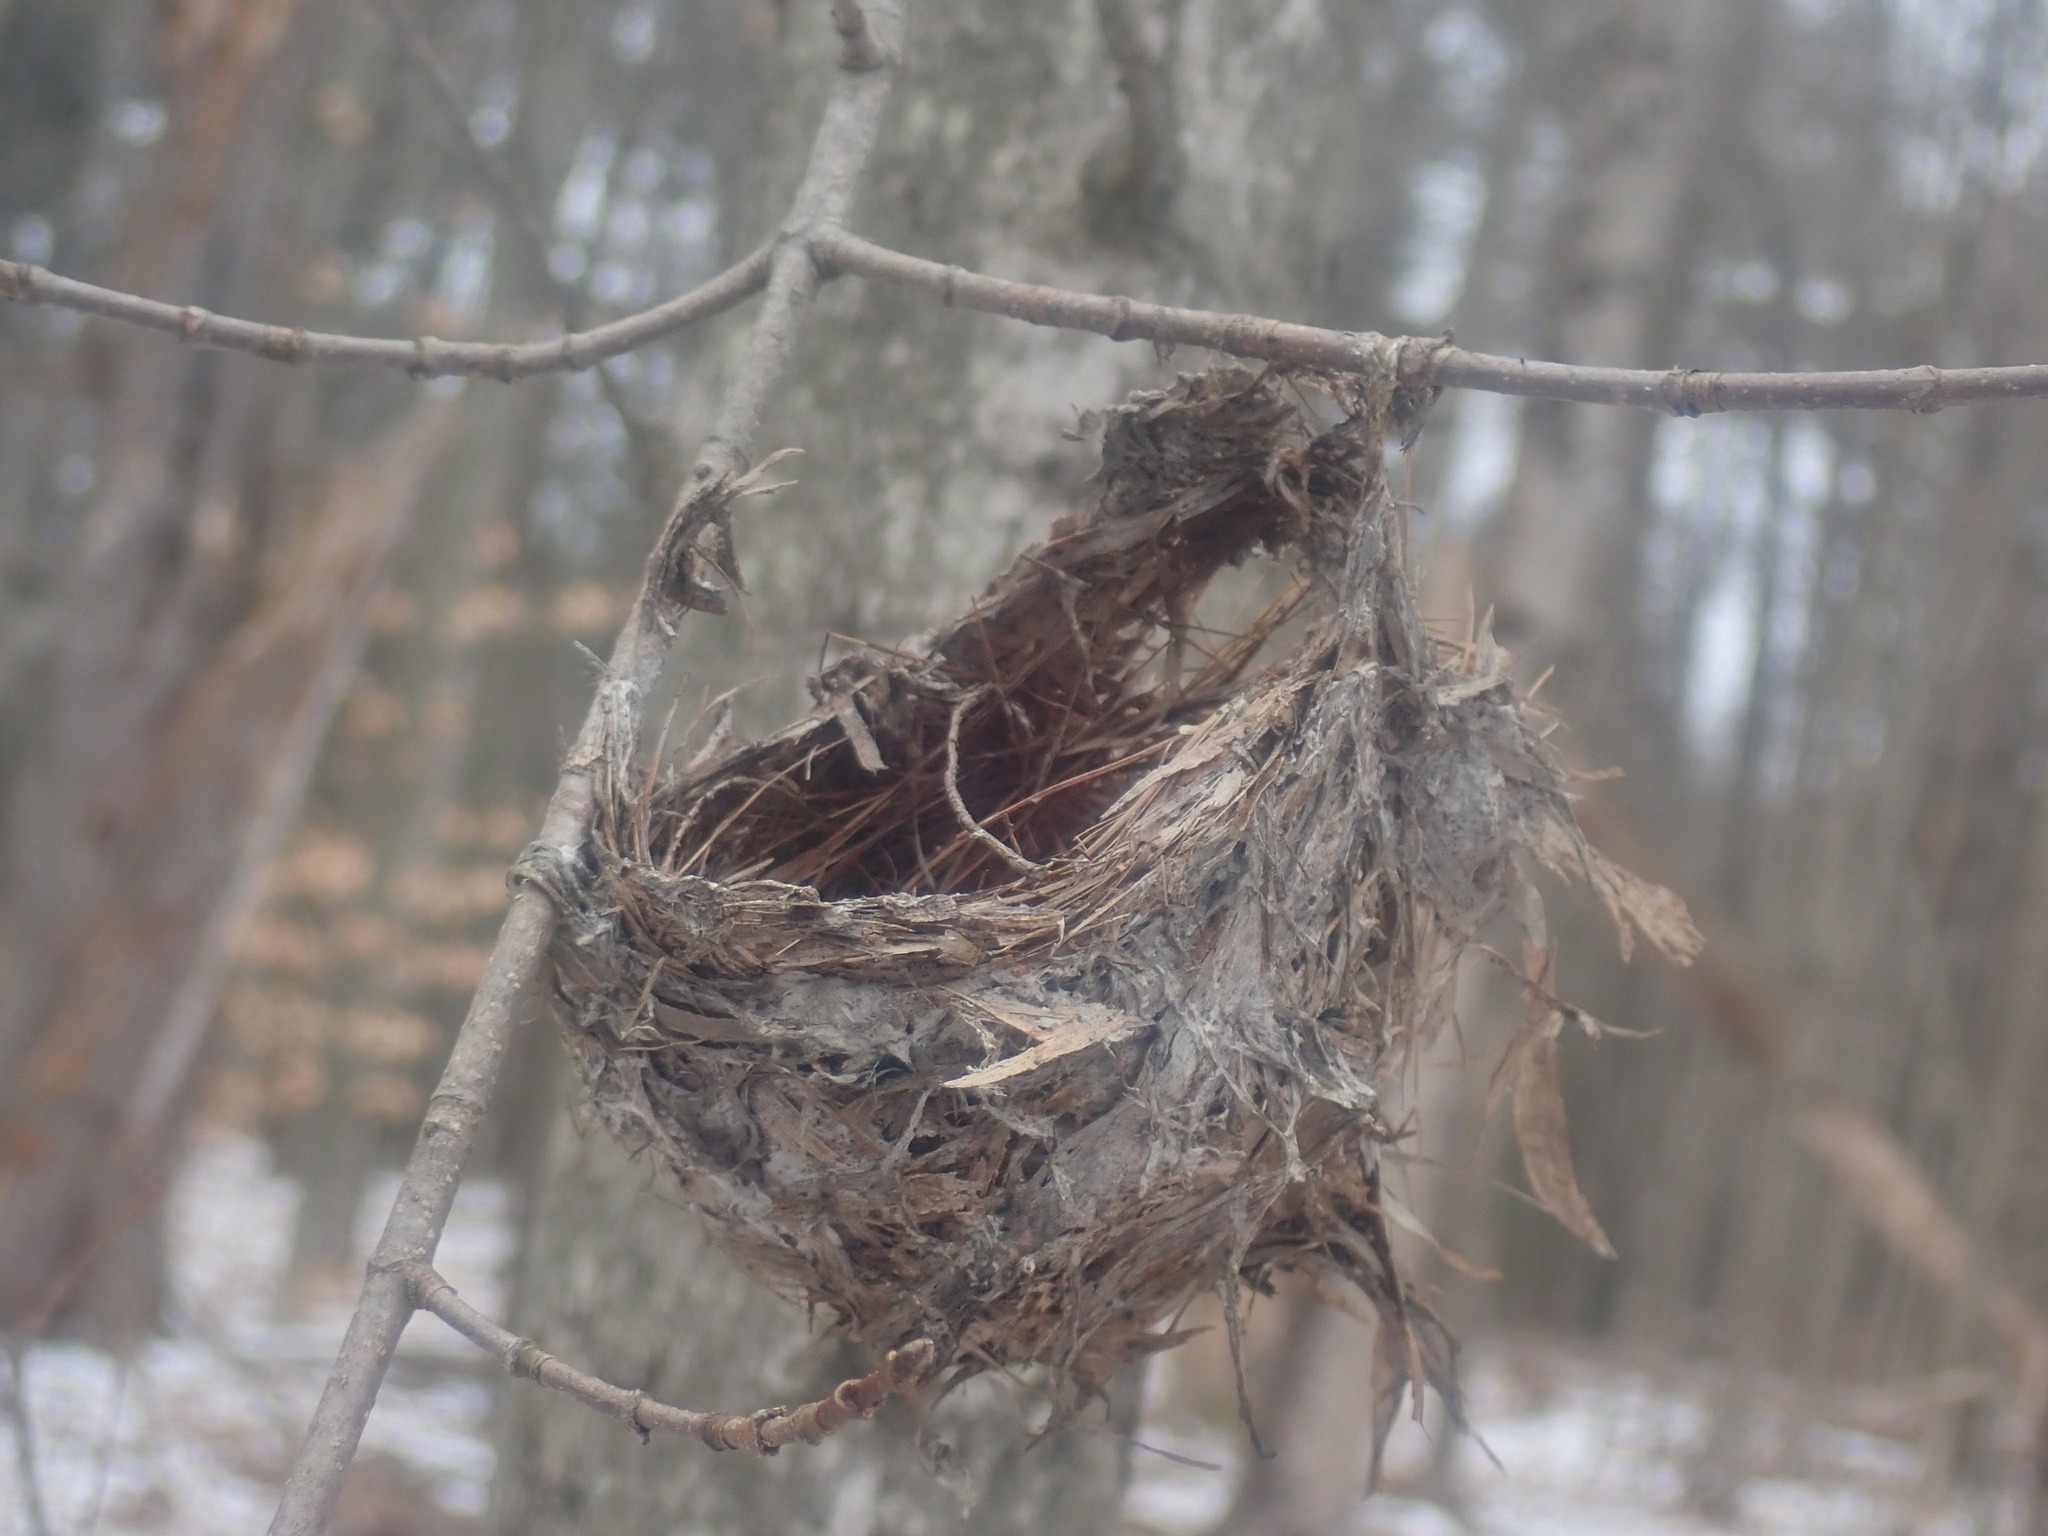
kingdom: Animalia
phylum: Chordata
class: Aves
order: Passeriformes
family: Vireonidae
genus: Vireo
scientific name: Vireo
